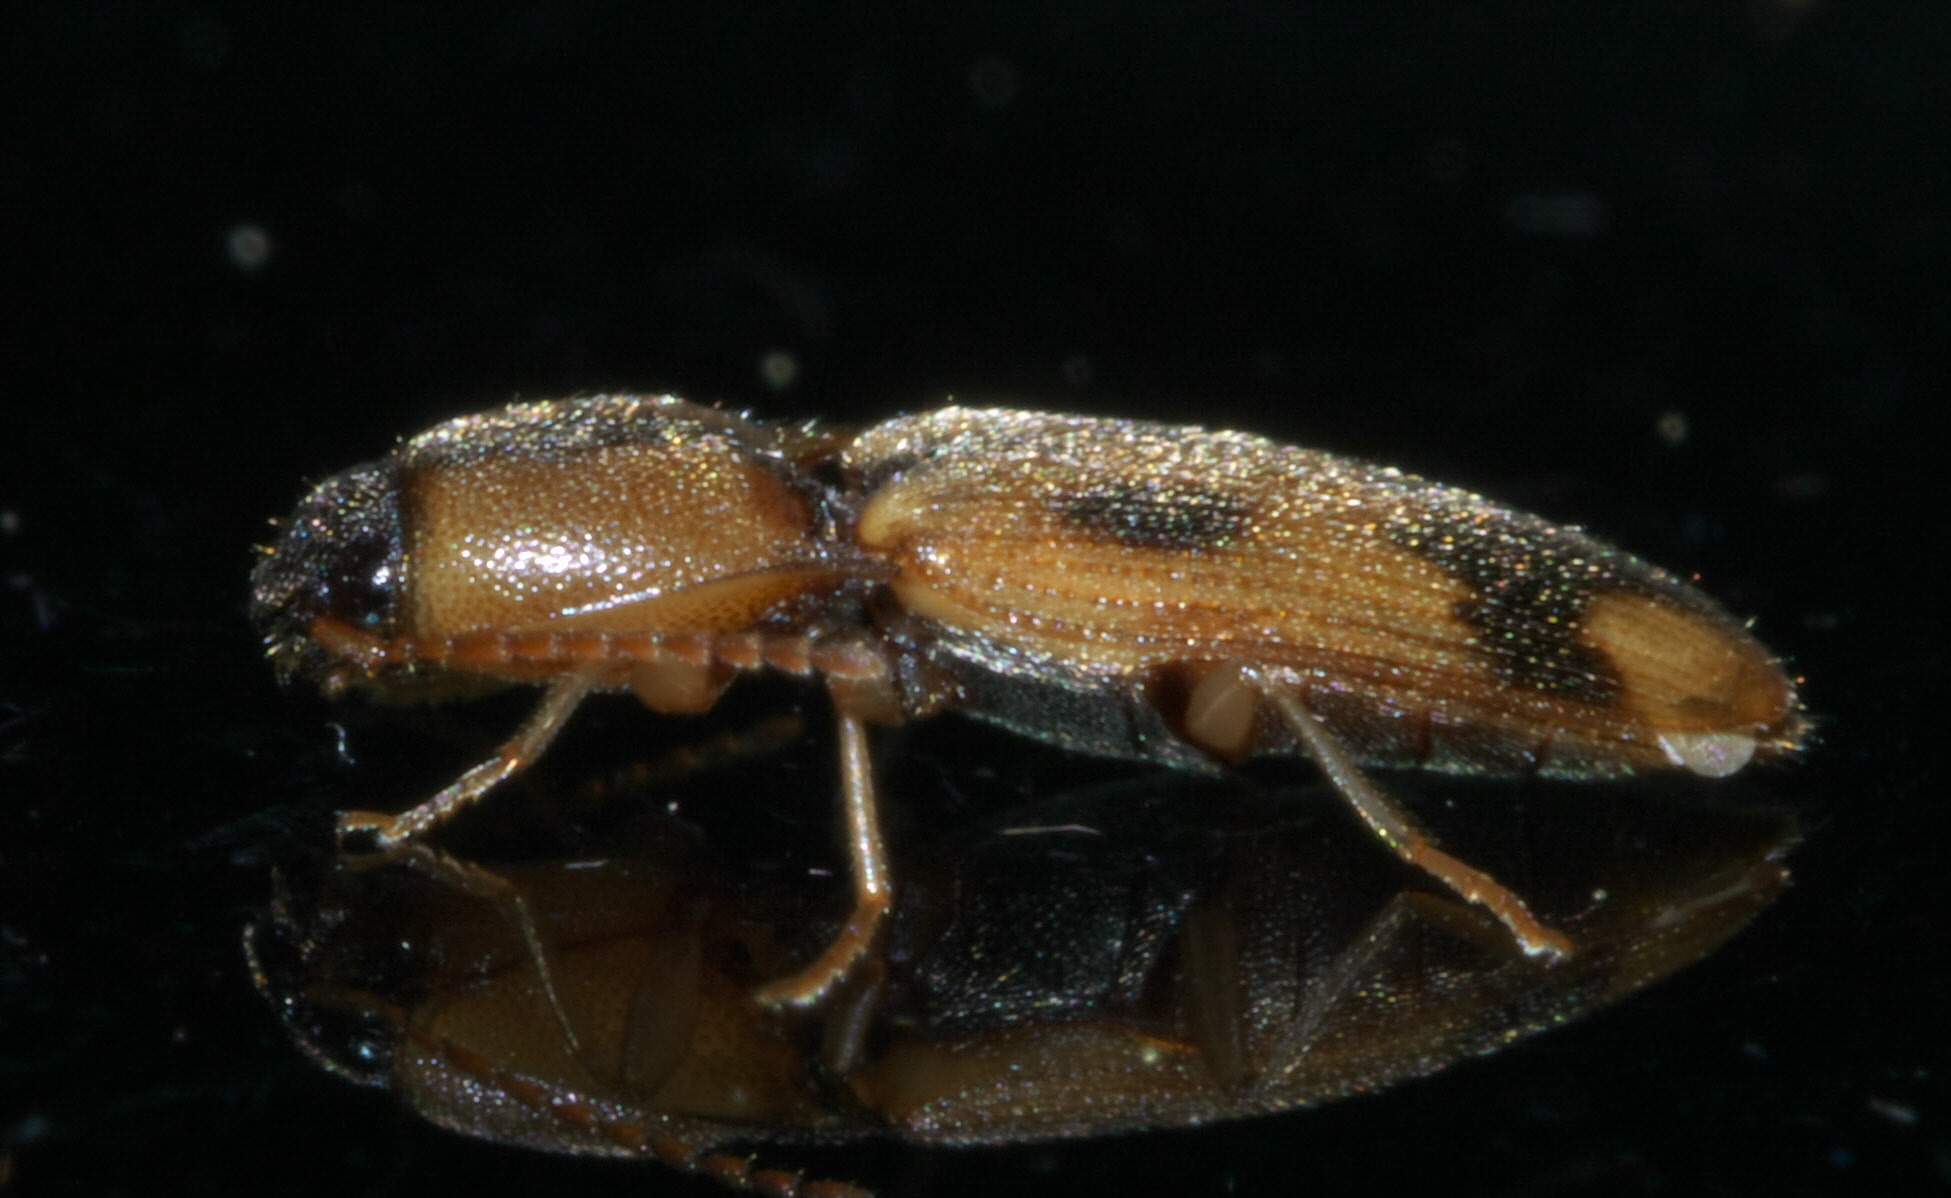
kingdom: Animalia
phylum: Arthropoda
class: Insecta
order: Coleoptera
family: Elateridae
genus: Aeolus
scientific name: Aeolus mellillus
